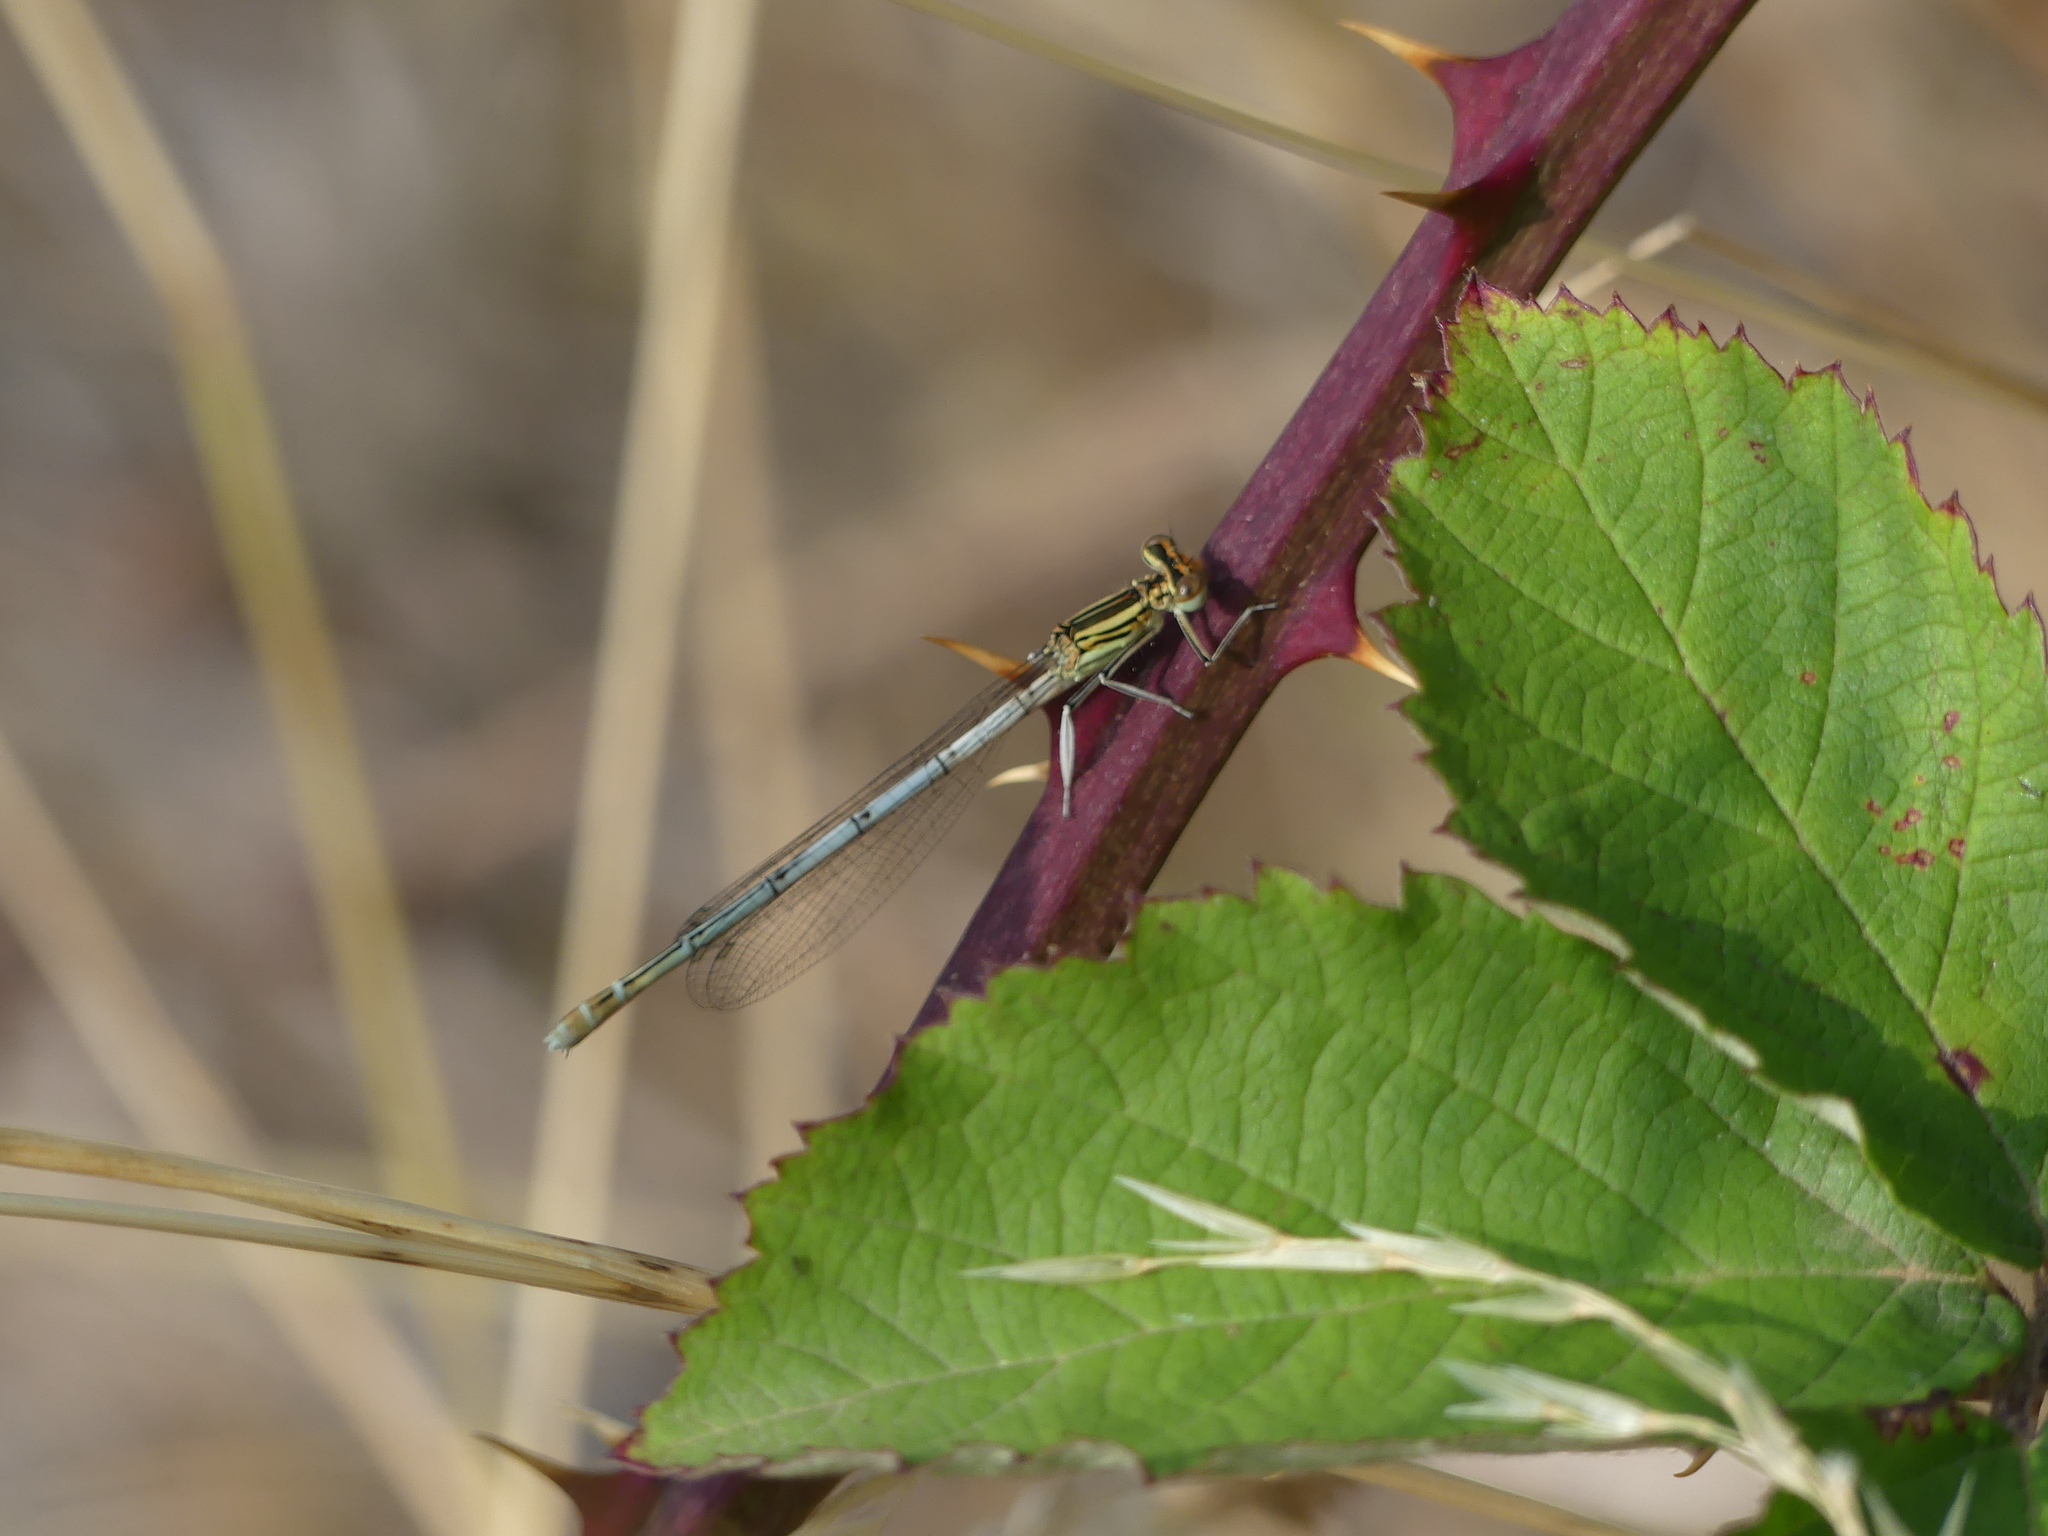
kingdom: Animalia
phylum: Arthropoda
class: Insecta
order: Odonata
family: Platycnemididae
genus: Platycnemis
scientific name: Platycnemis pennipes
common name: White-legged damselfly
